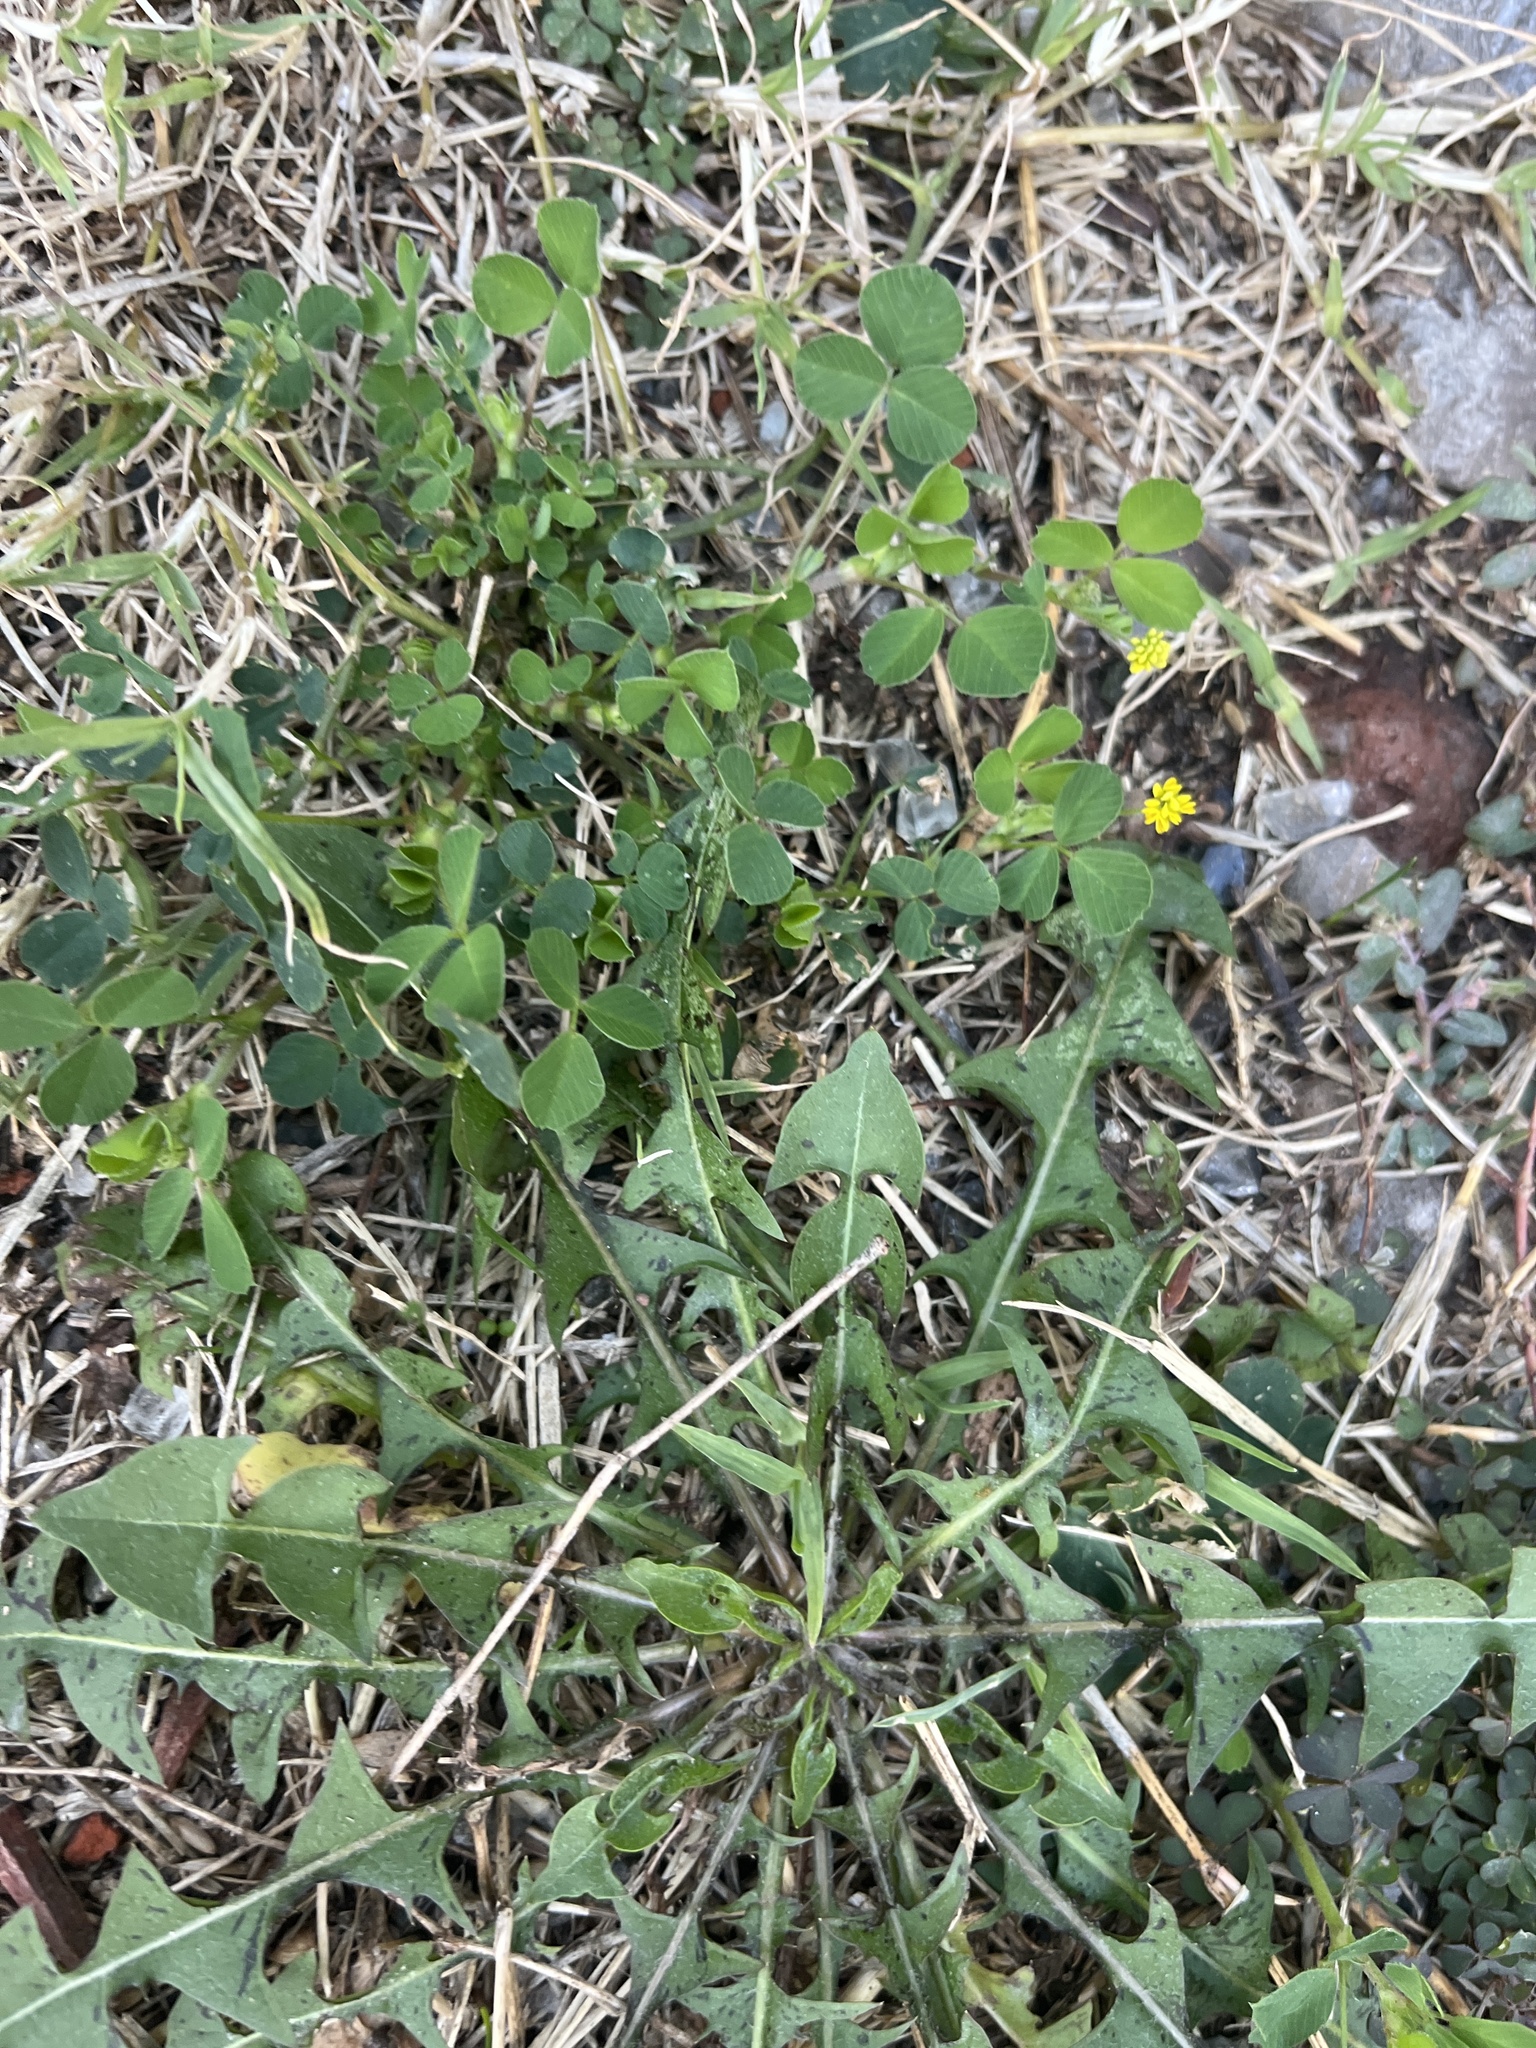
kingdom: Plantae
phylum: Tracheophyta
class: Magnoliopsida
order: Fabales
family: Fabaceae
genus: Medicago
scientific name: Medicago lupulina
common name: Black medick
